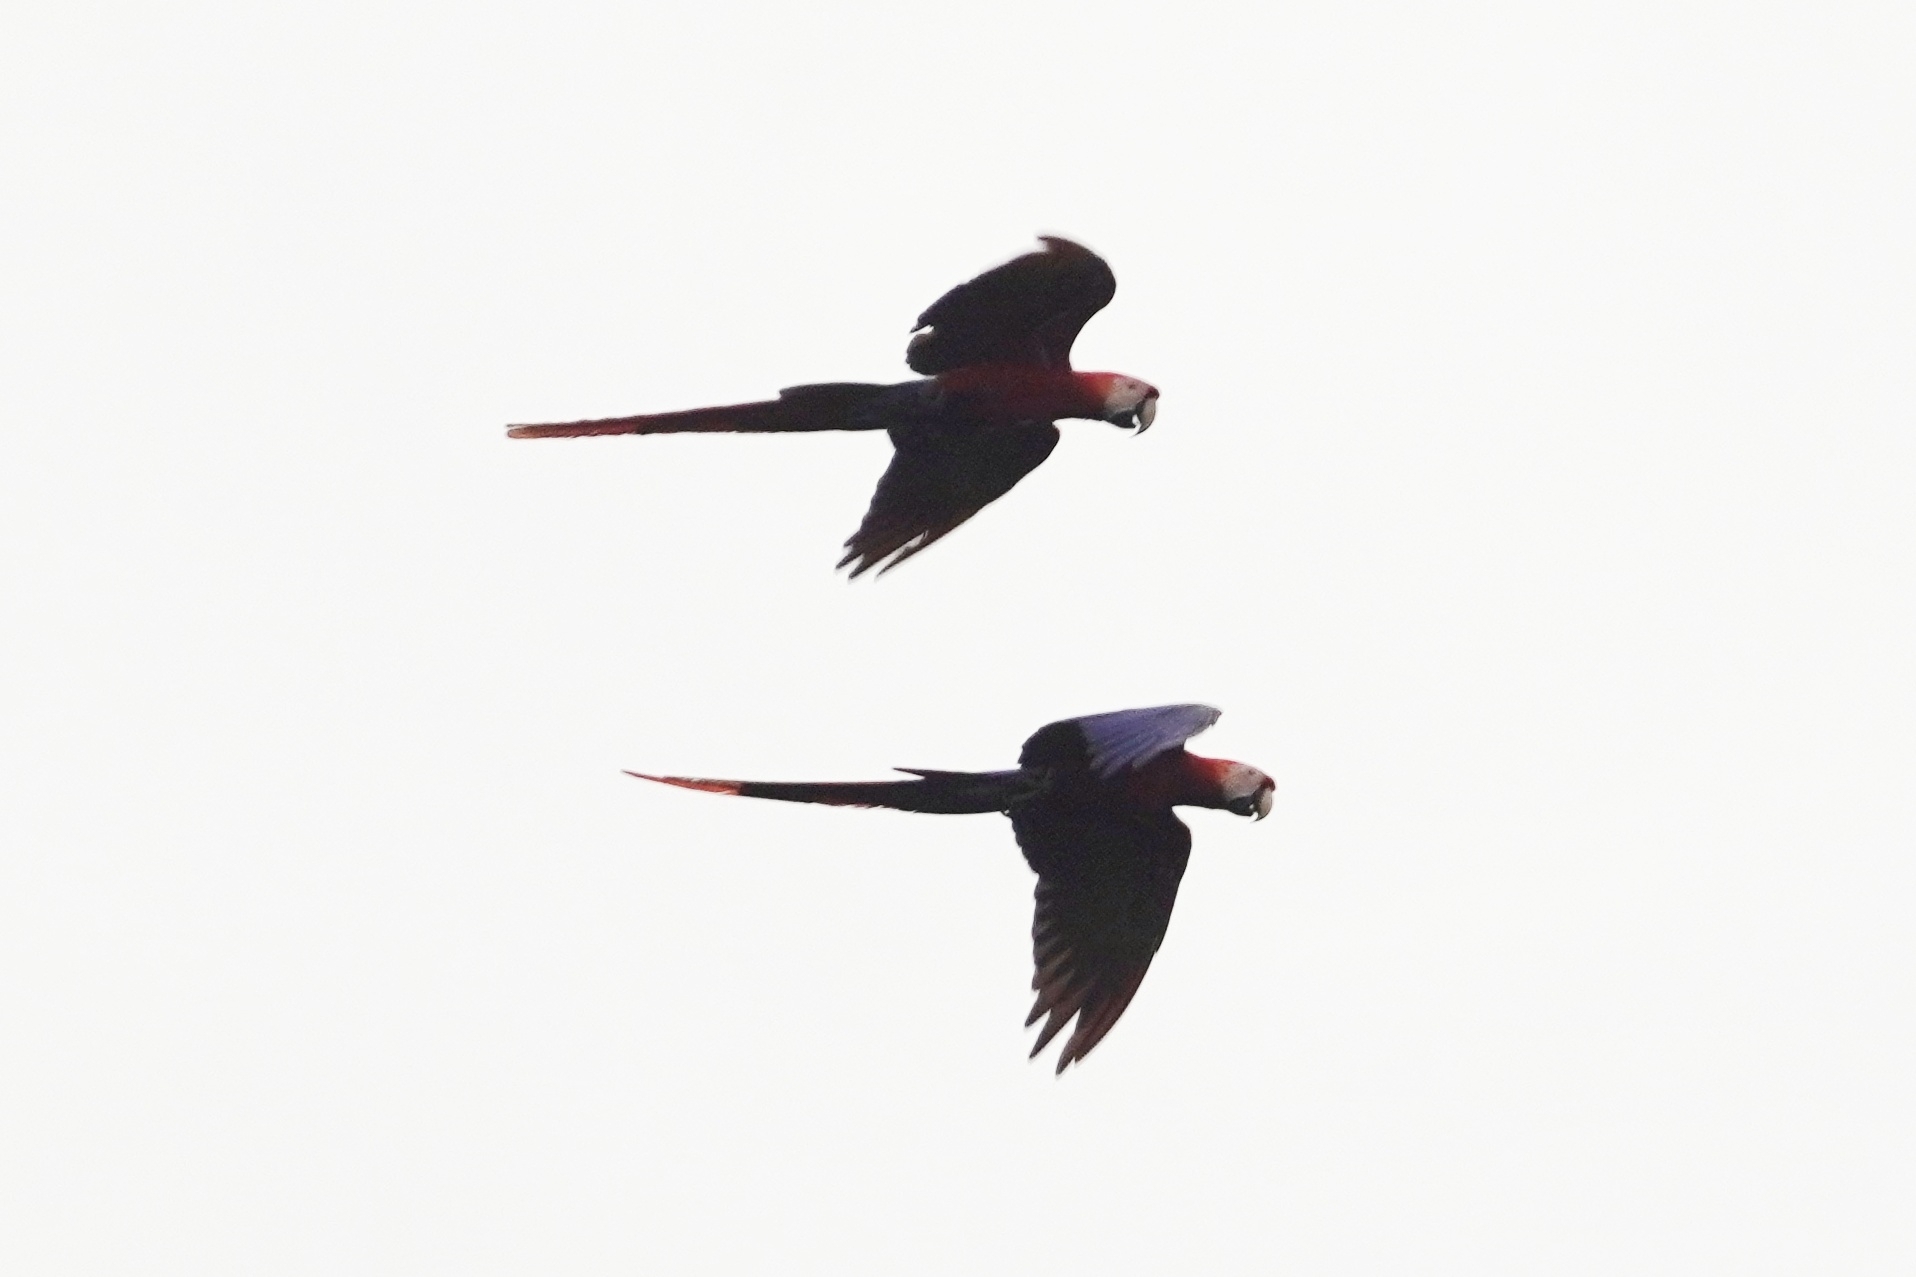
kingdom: Animalia
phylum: Chordata
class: Aves
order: Psittaciformes
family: Psittacidae
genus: Ara
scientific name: Ara macao
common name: Scarlet macaw
